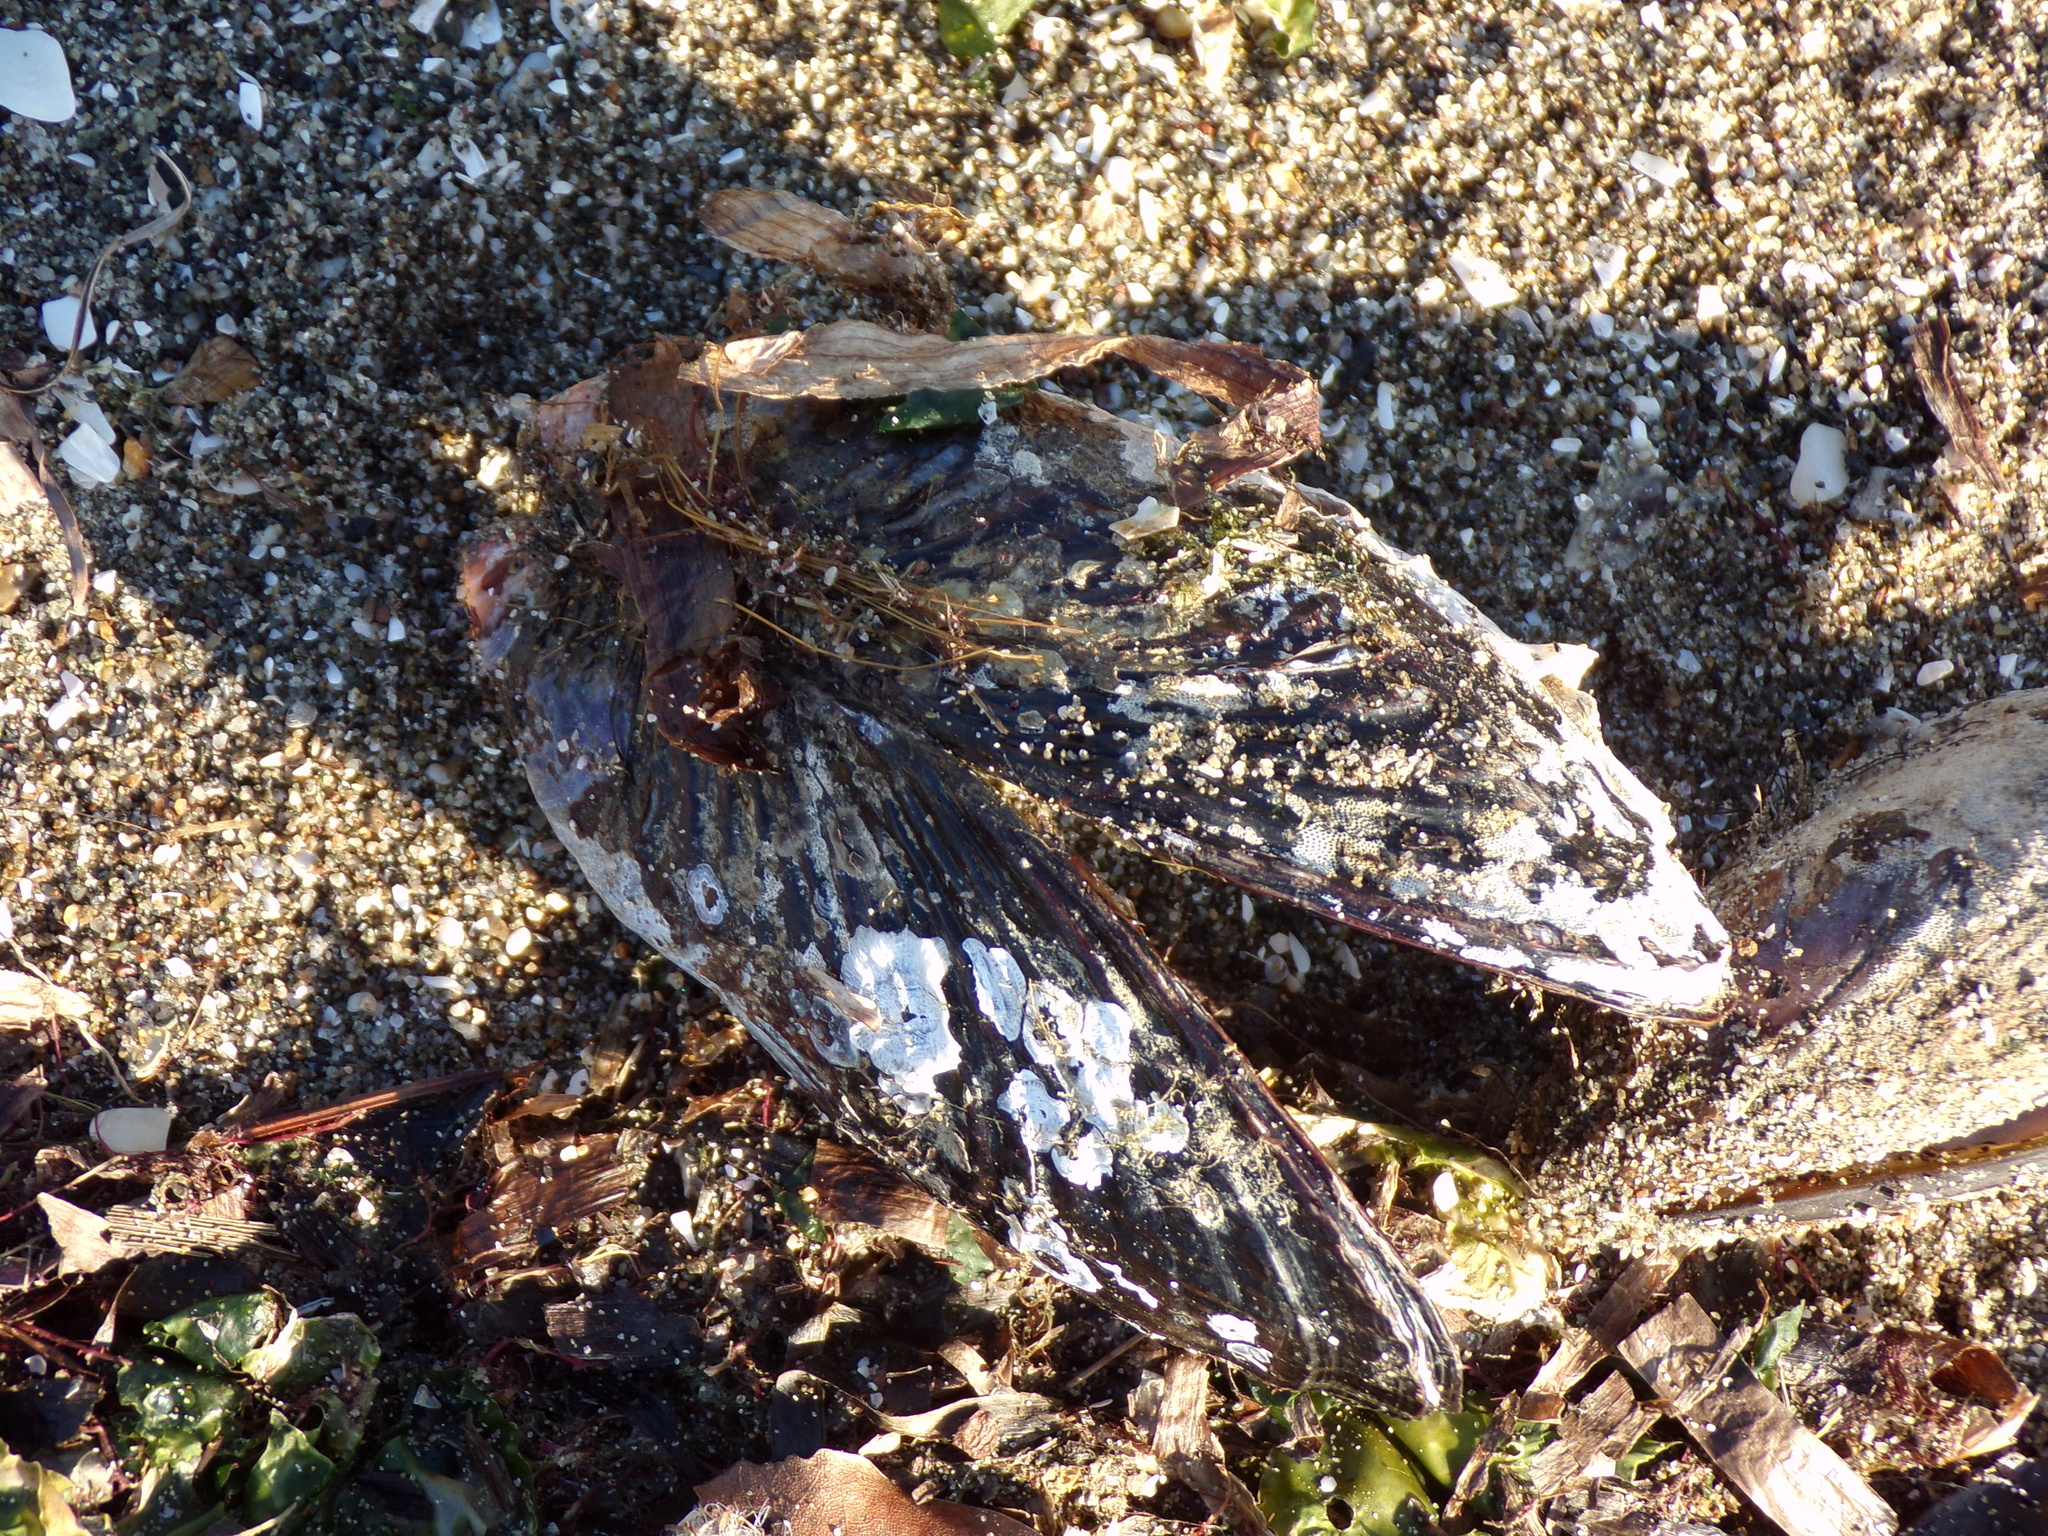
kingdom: Animalia
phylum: Mollusca
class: Bivalvia
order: Mytilida
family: Mytilidae
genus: Mytilus
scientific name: Mytilus californianus
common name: California mussel
